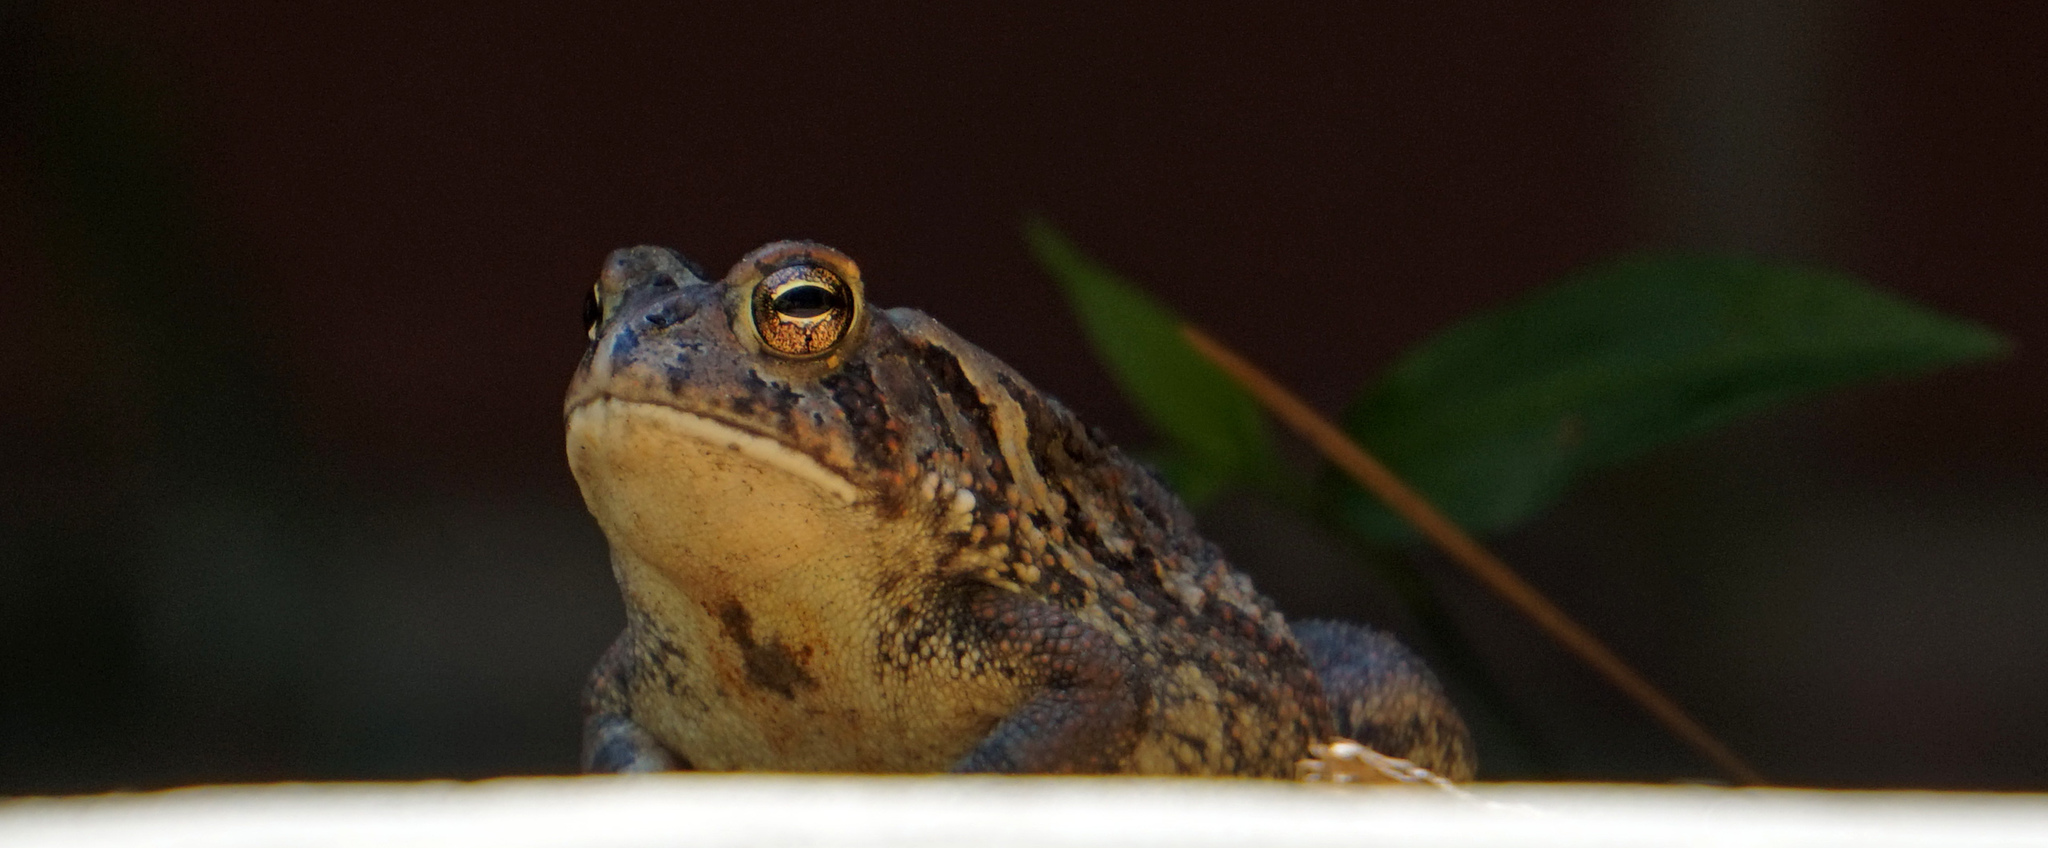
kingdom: Animalia
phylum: Chordata
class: Amphibia
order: Anura
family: Bufonidae
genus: Anaxyrus
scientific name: Anaxyrus fowleri
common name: Fowler's toad
